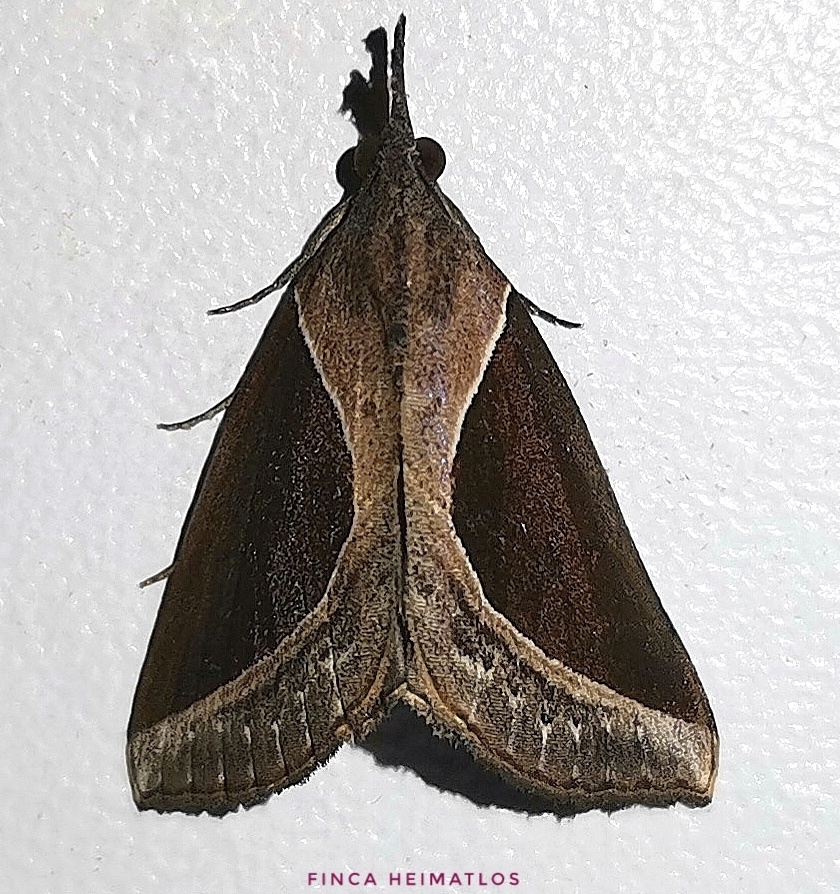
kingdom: Animalia
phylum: Arthropoda
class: Insecta
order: Lepidoptera
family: Erebidae
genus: Hypena
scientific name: Hypena
